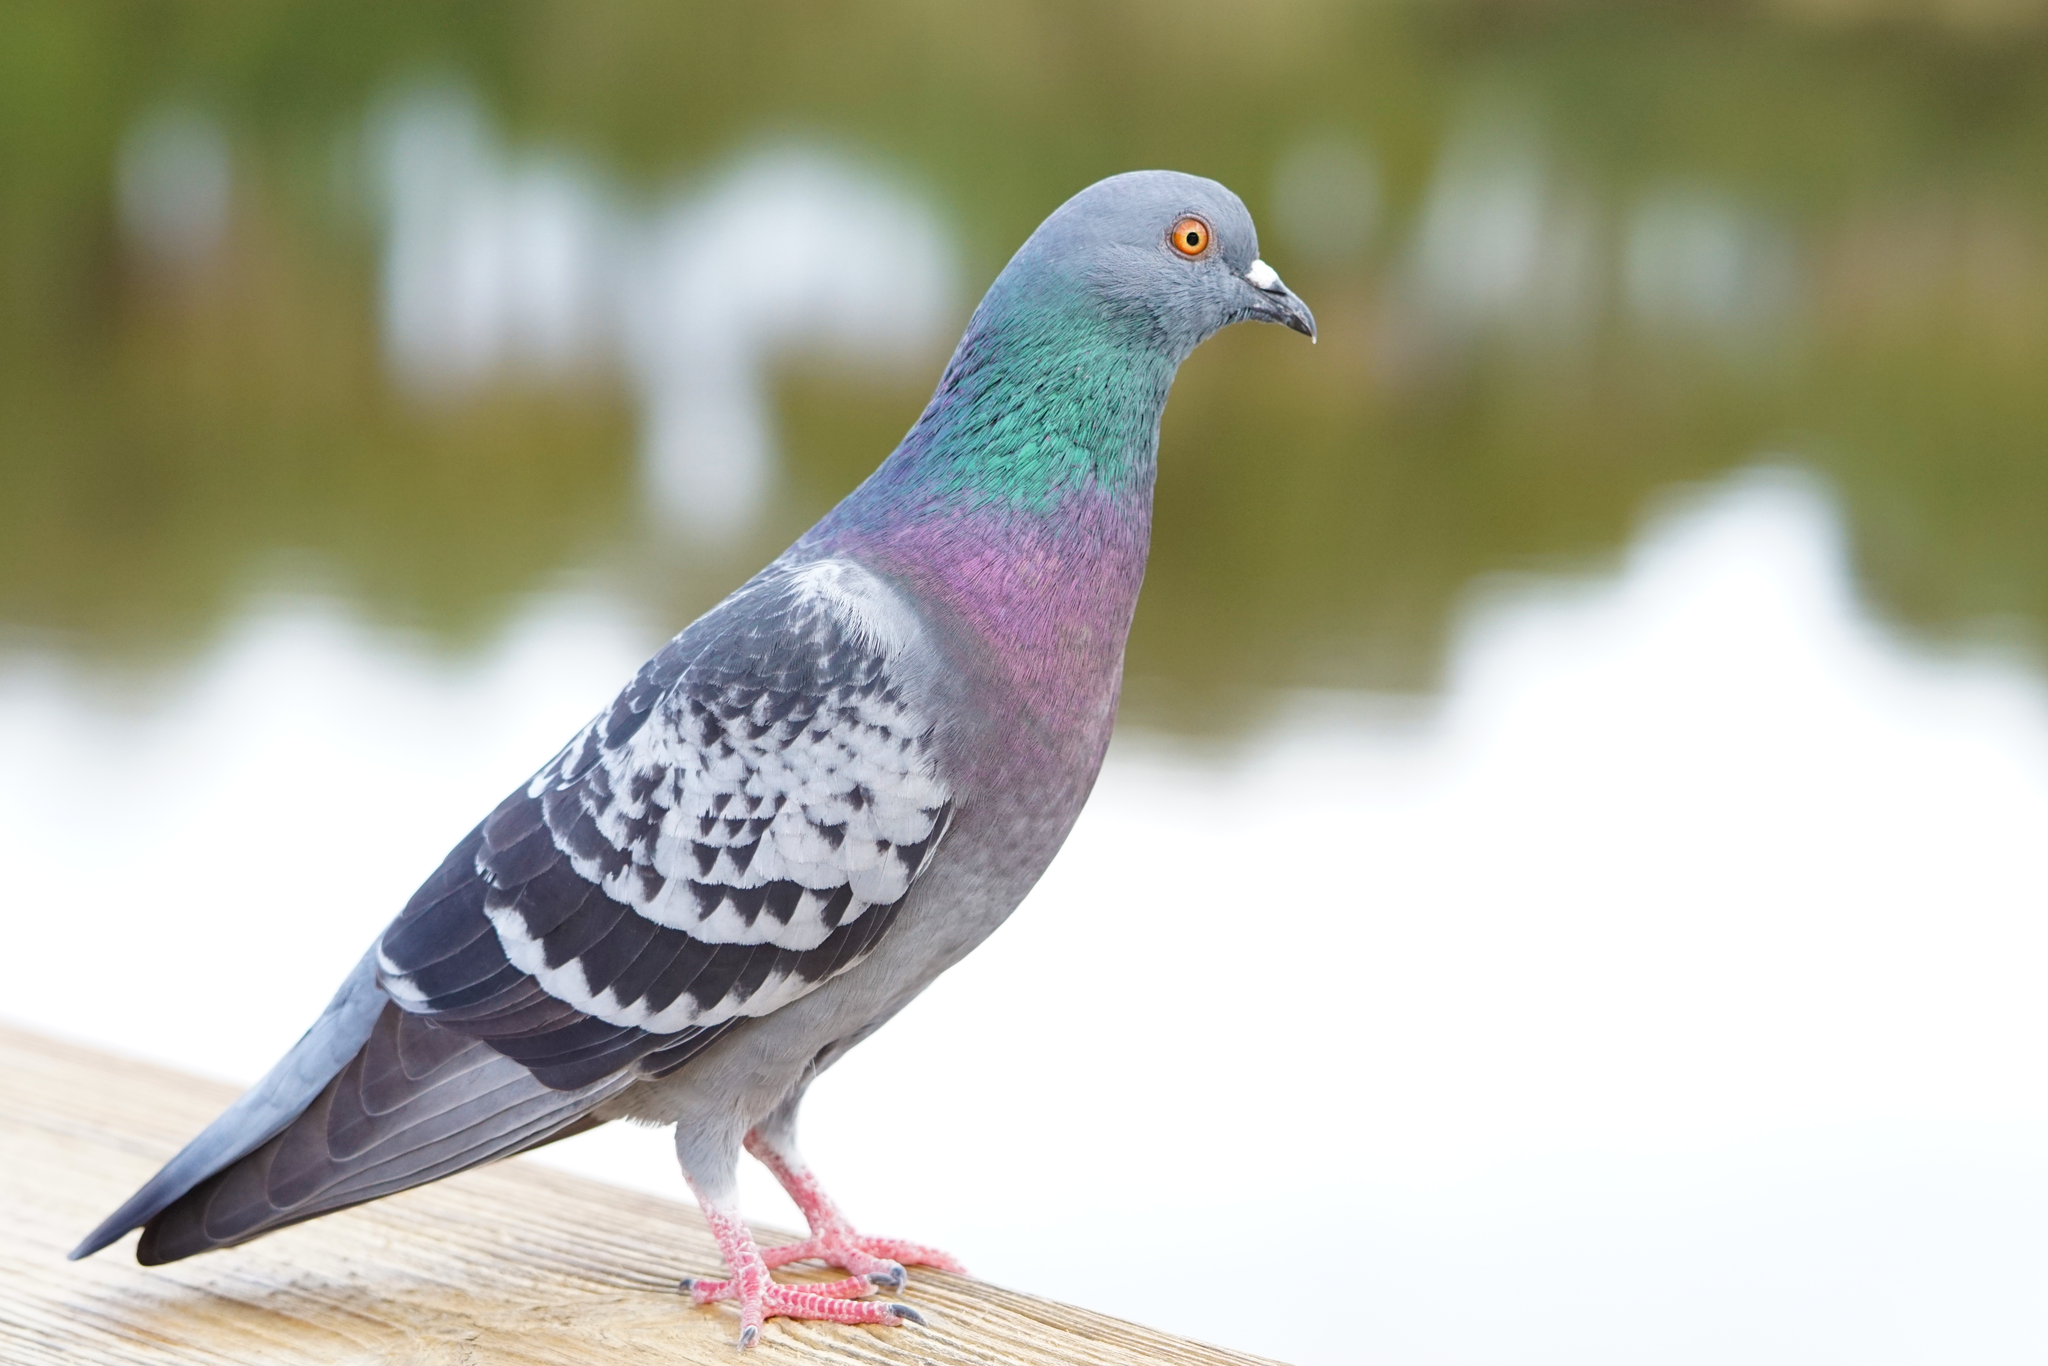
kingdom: Animalia
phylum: Chordata
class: Aves
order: Columbiformes
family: Columbidae
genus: Columba
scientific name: Columba livia
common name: Rock pigeon
